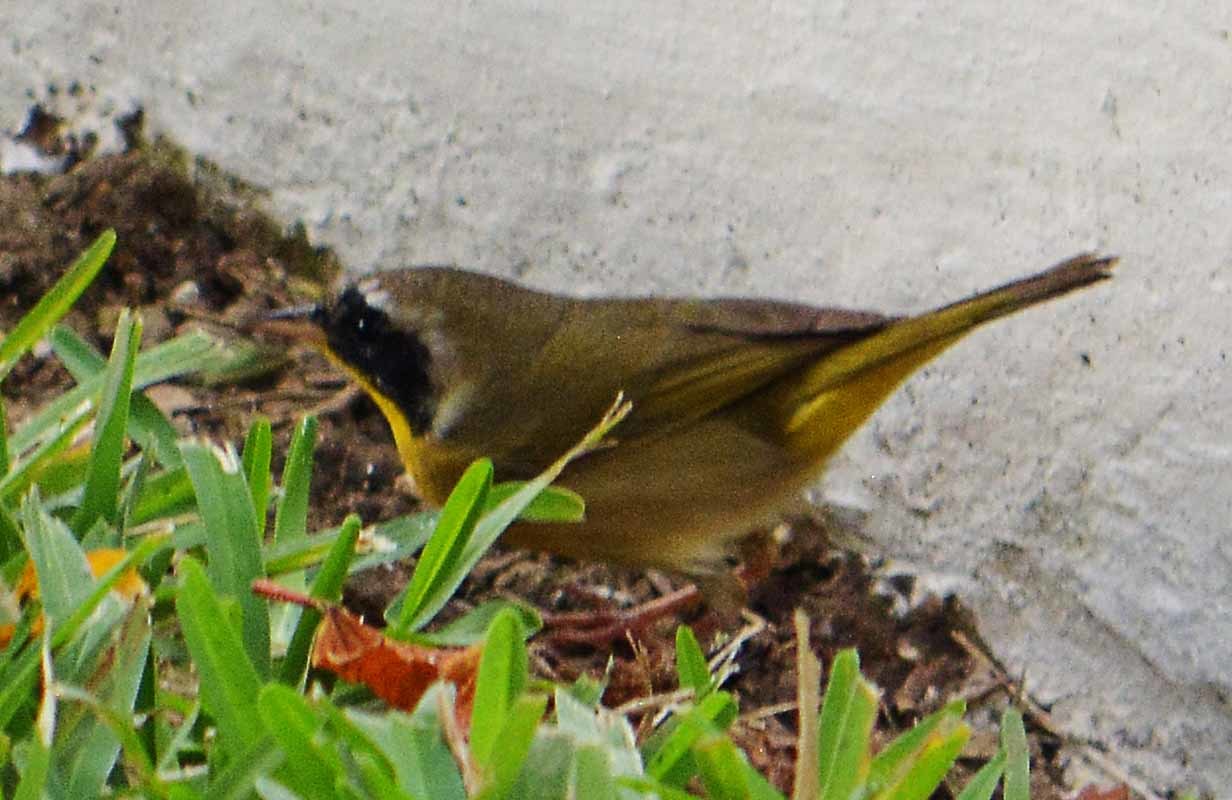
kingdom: Animalia
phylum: Chordata
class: Aves
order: Passeriformes
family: Parulidae
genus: Geothlypis
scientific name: Geothlypis trichas
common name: Common yellowthroat
